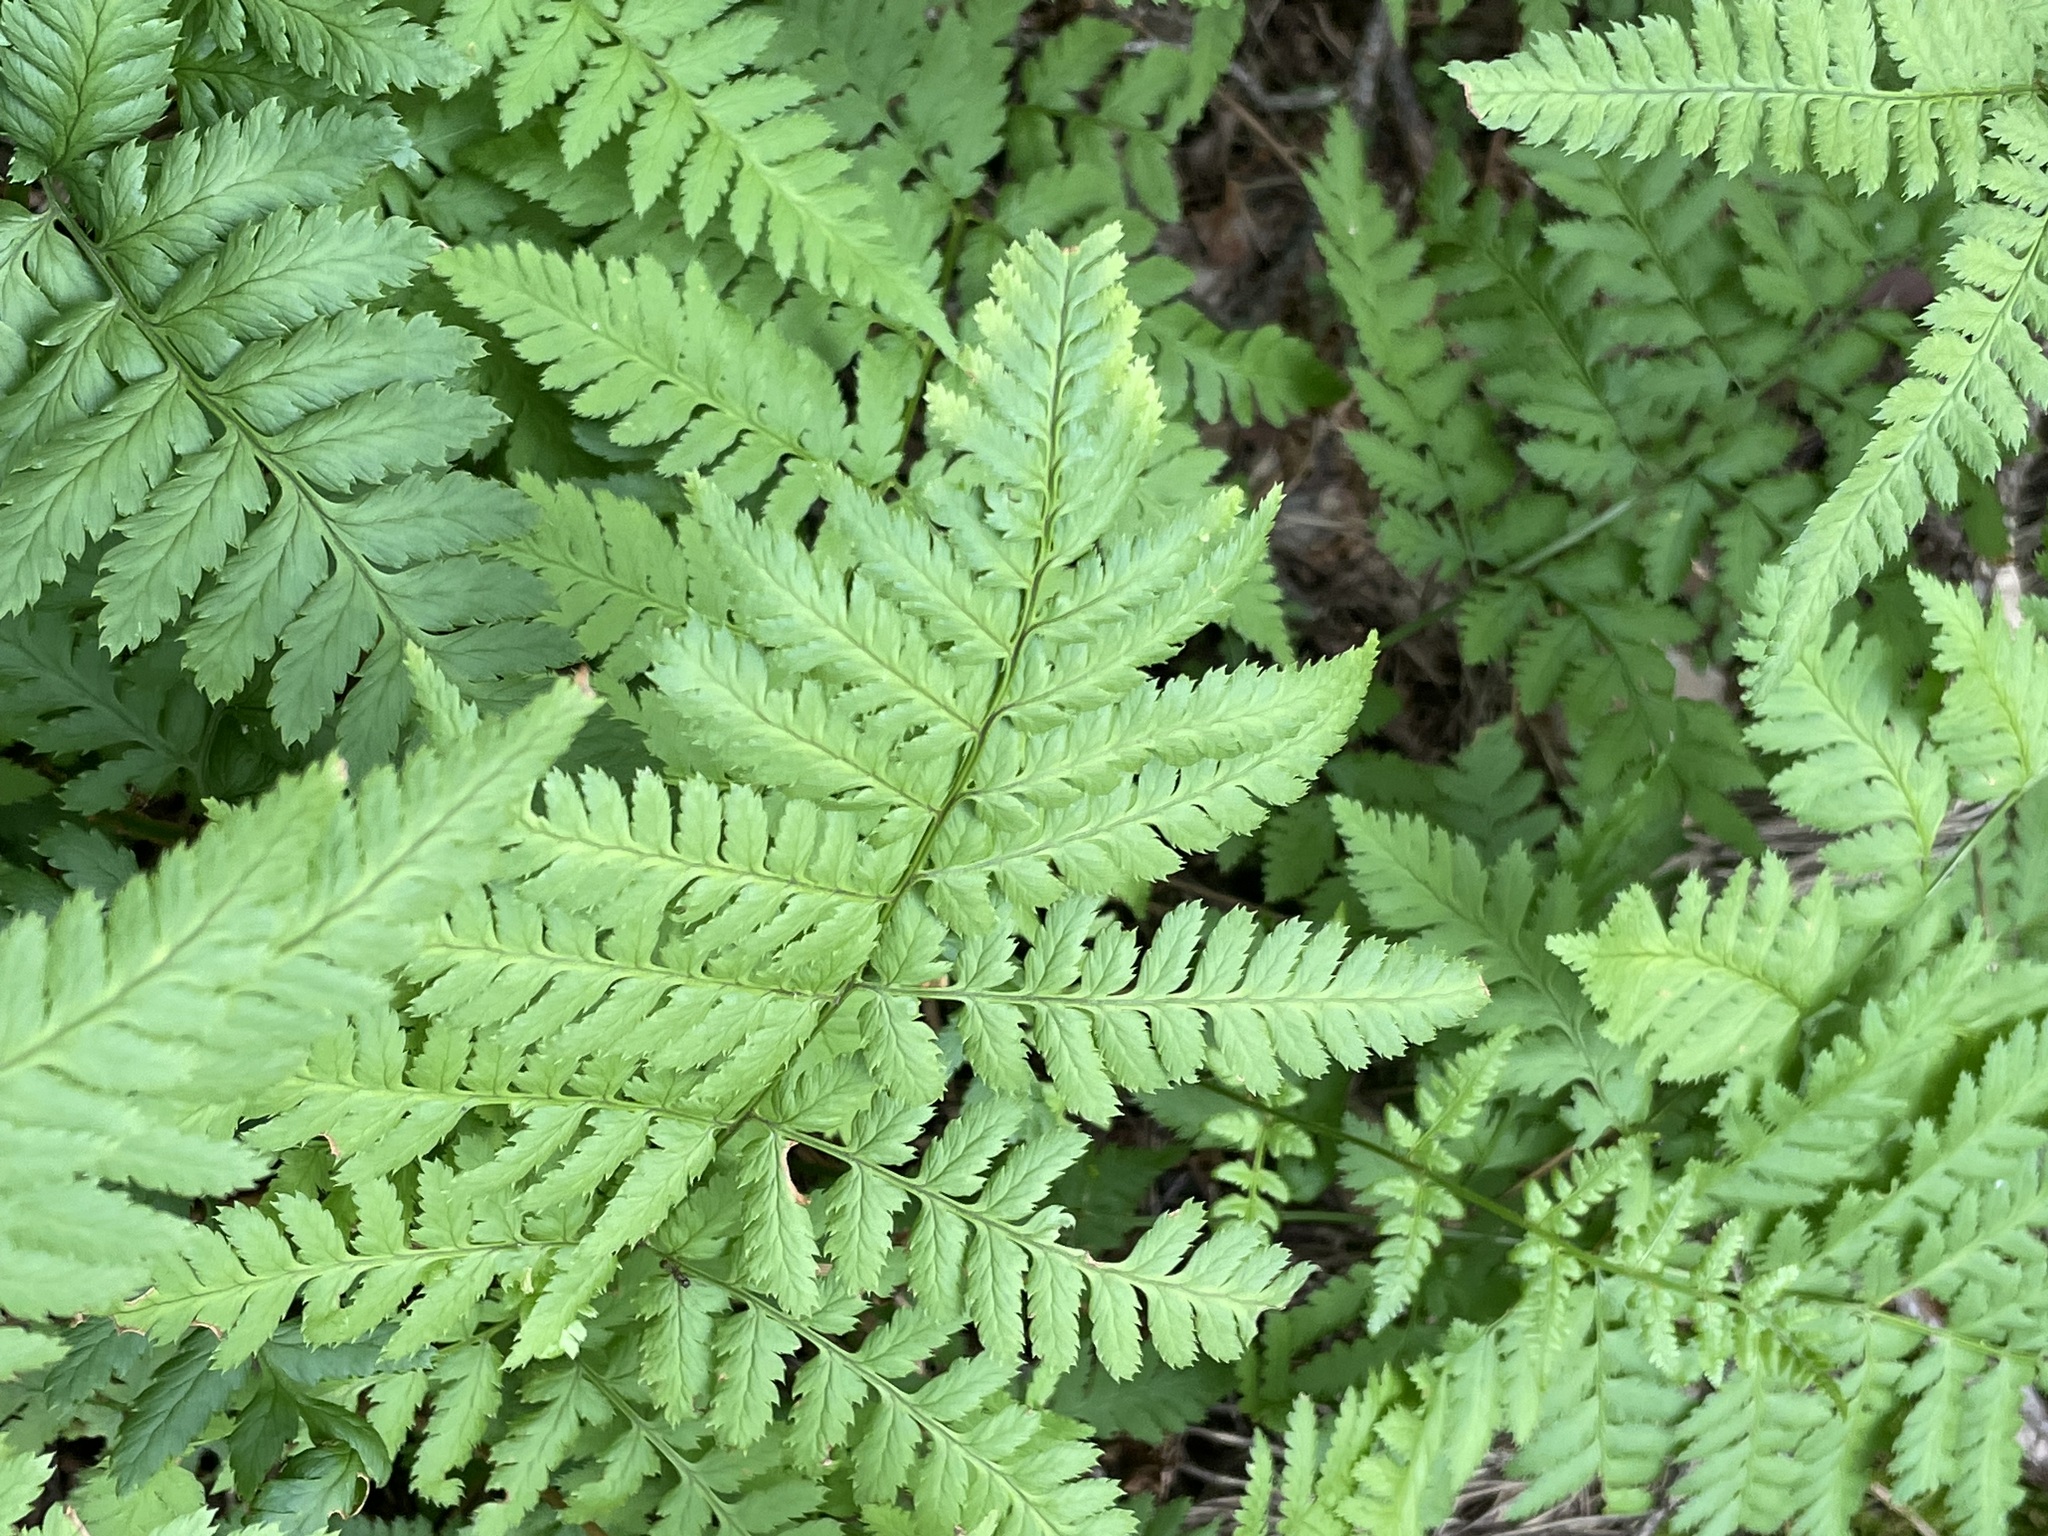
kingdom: Plantae
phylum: Tracheophyta
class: Polypodiopsida
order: Polypodiales
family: Dryopteridaceae
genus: Dryopteris
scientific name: Dryopteris carthusiana
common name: Narrow buckler-fern
